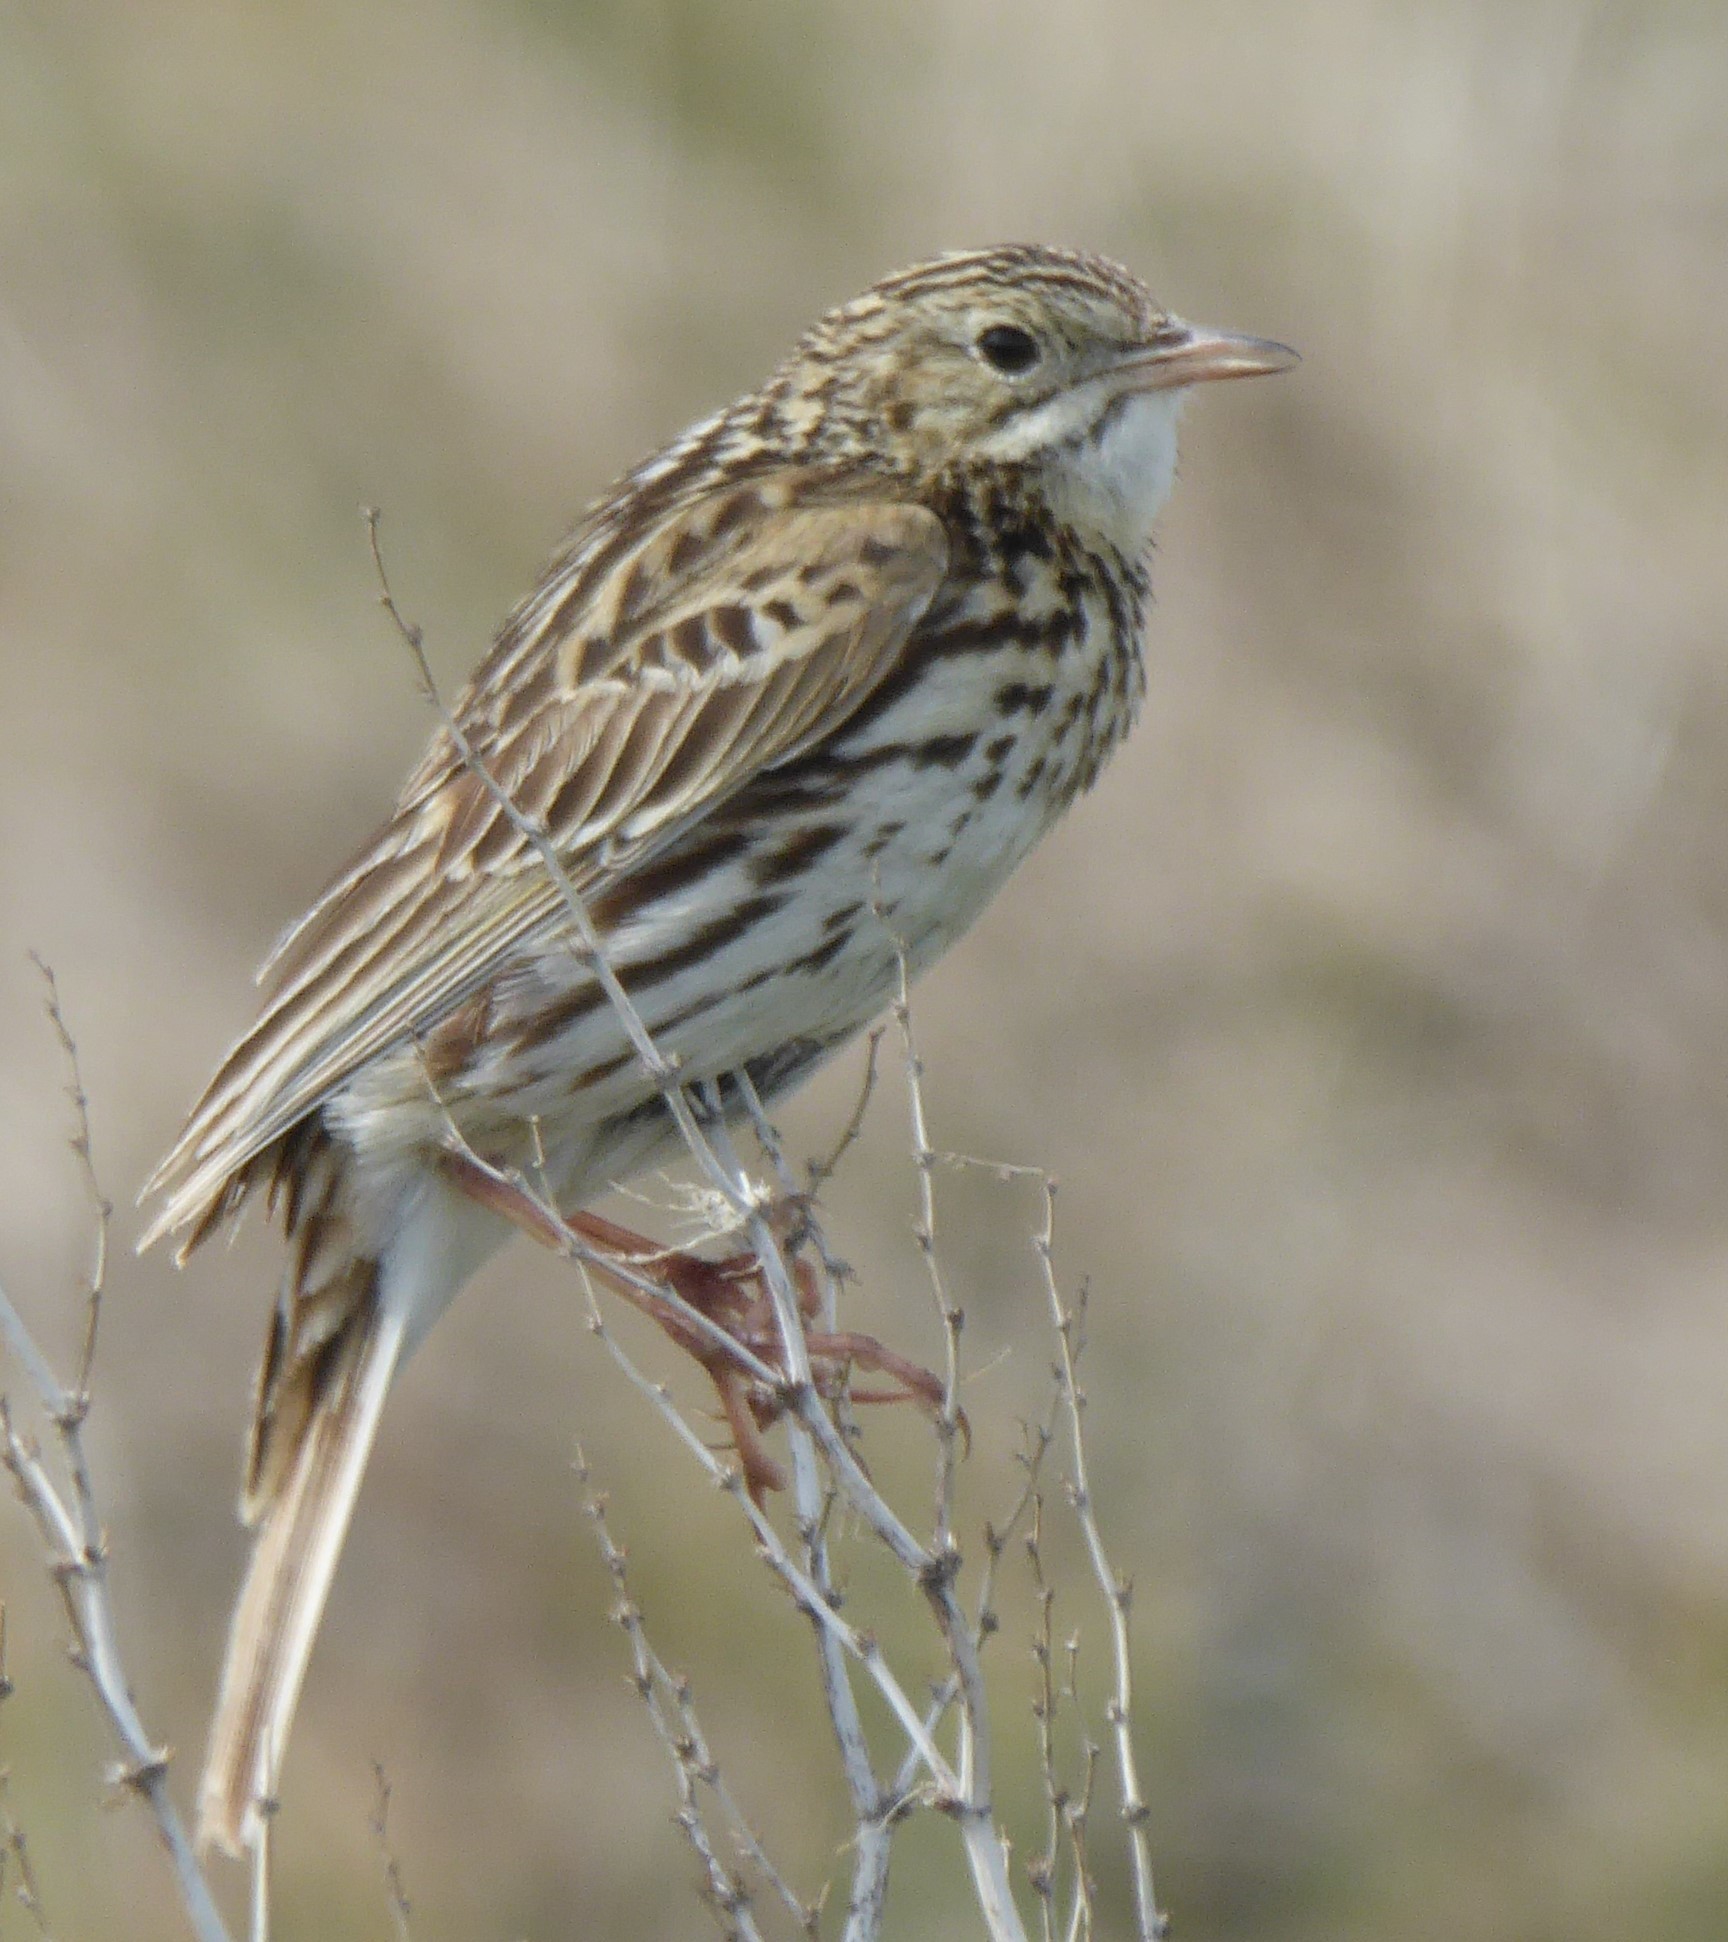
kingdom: Animalia
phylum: Chordata
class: Aves
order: Passeriformes
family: Motacillidae
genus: Anthus
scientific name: Anthus correndera
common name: Correndera pipit
